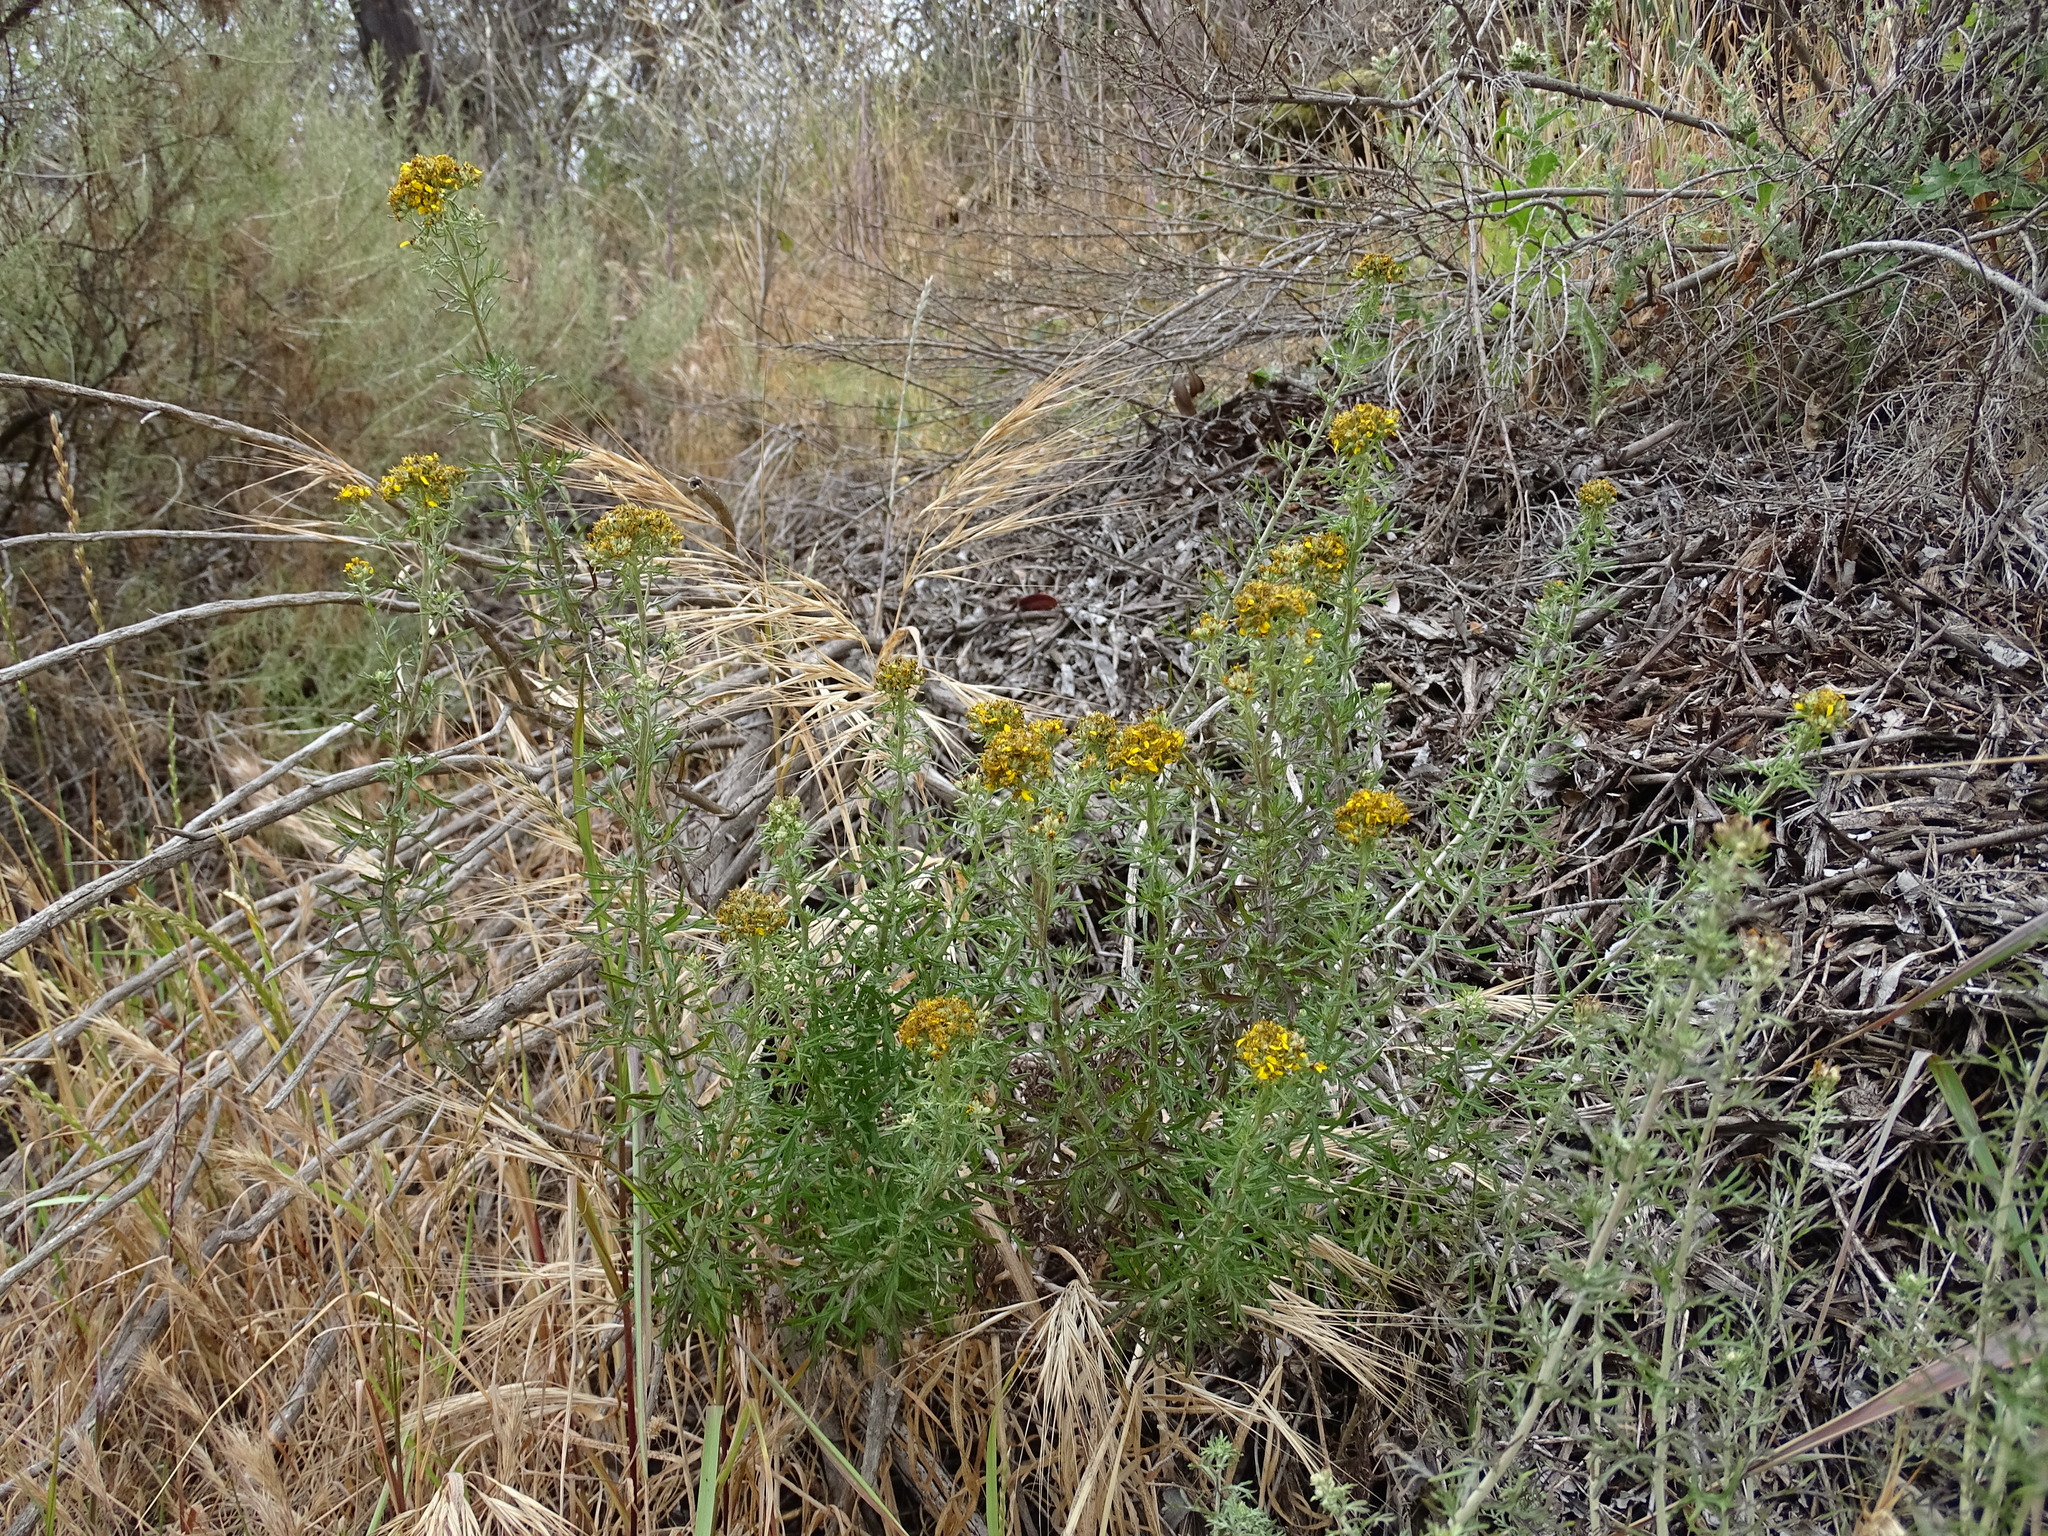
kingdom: Plantae
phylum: Tracheophyta
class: Magnoliopsida
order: Asterales
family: Asteraceae
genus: Eriophyllum
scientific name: Eriophyllum confertiflorum
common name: Golden-yarrow
